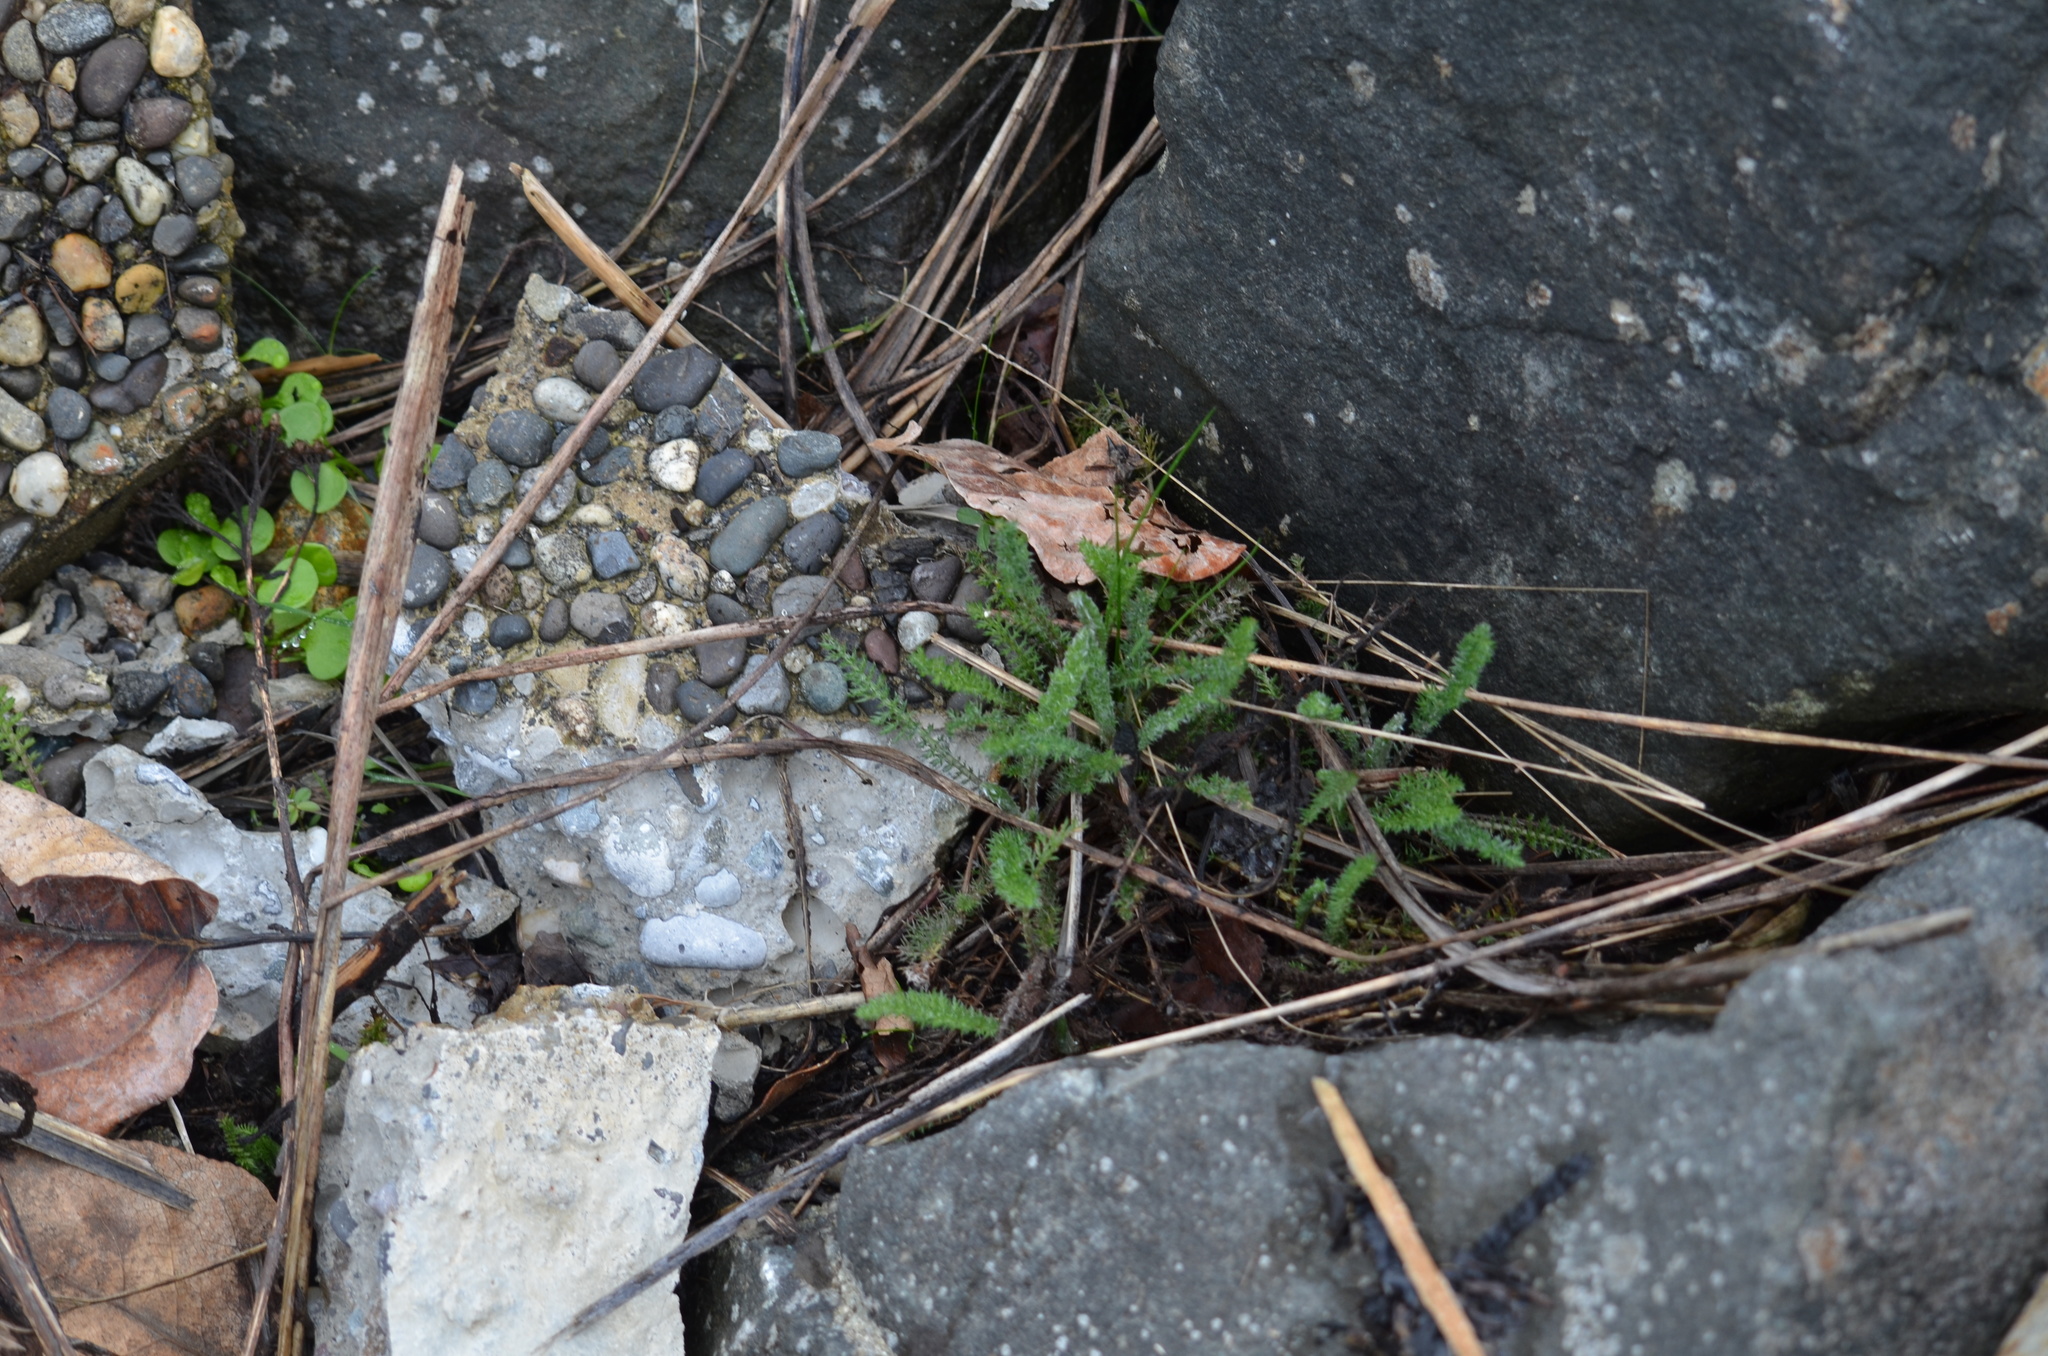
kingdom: Plantae
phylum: Tracheophyta
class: Magnoliopsida
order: Asterales
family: Asteraceae
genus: Achillea
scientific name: Achillea millefolium
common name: Yarrow
